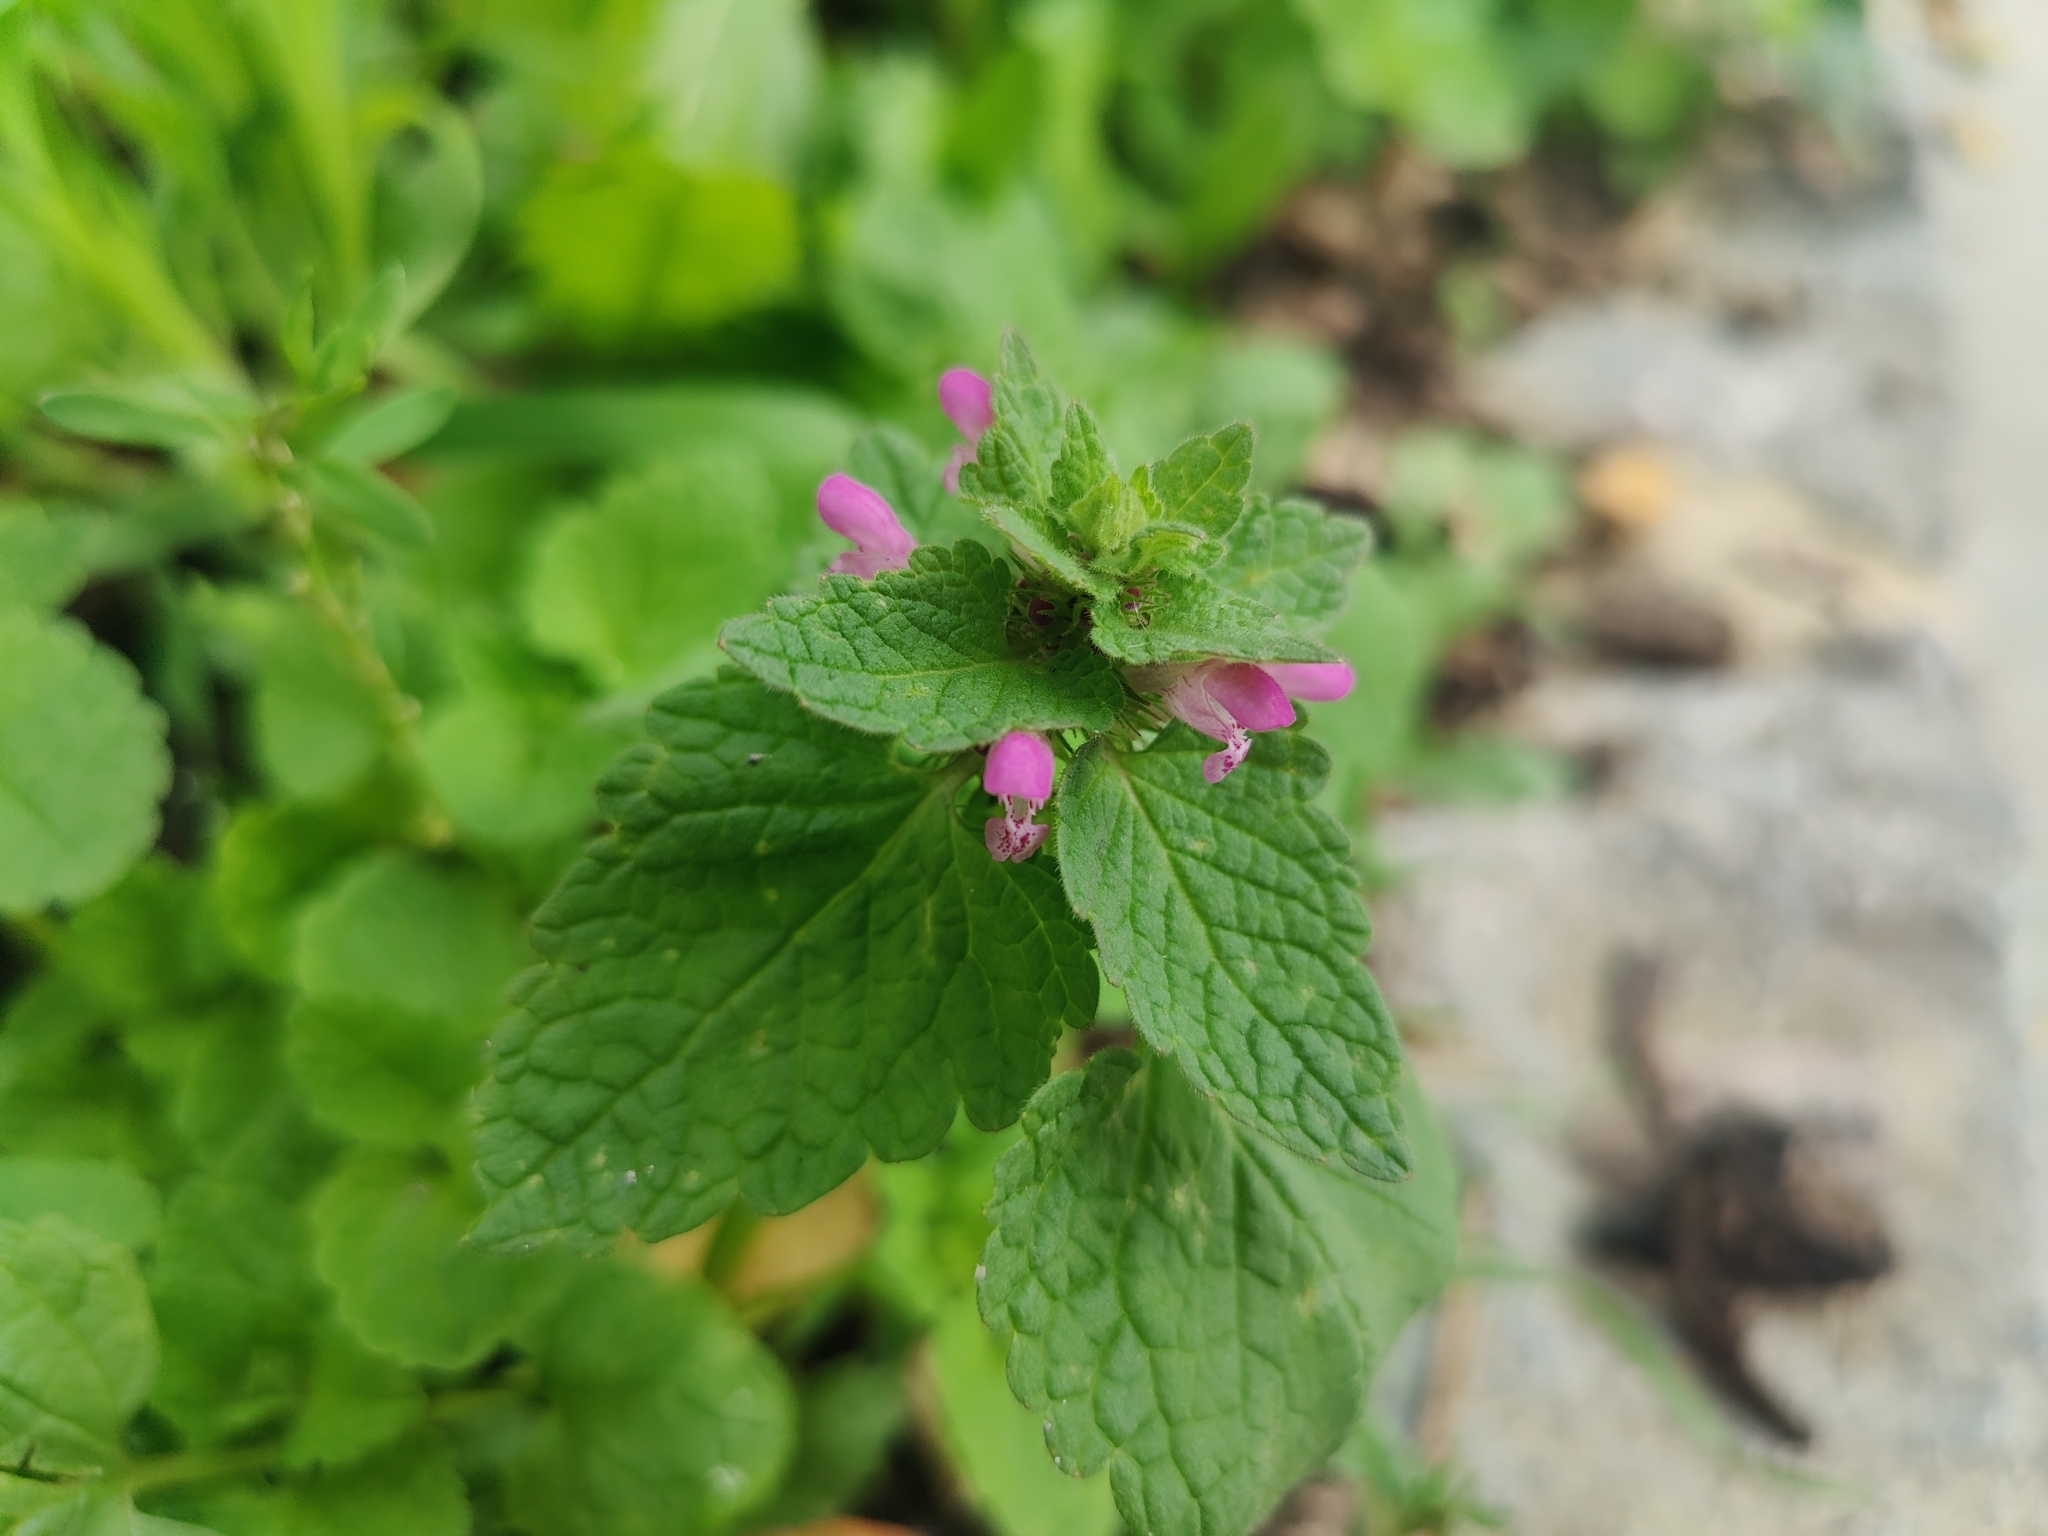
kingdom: Plantae
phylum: Tracheophyta
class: Magnoliopsida
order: Lamiales
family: Lamiaceae
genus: Lamium
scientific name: Lamium purpureum
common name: Red dead-nettle
